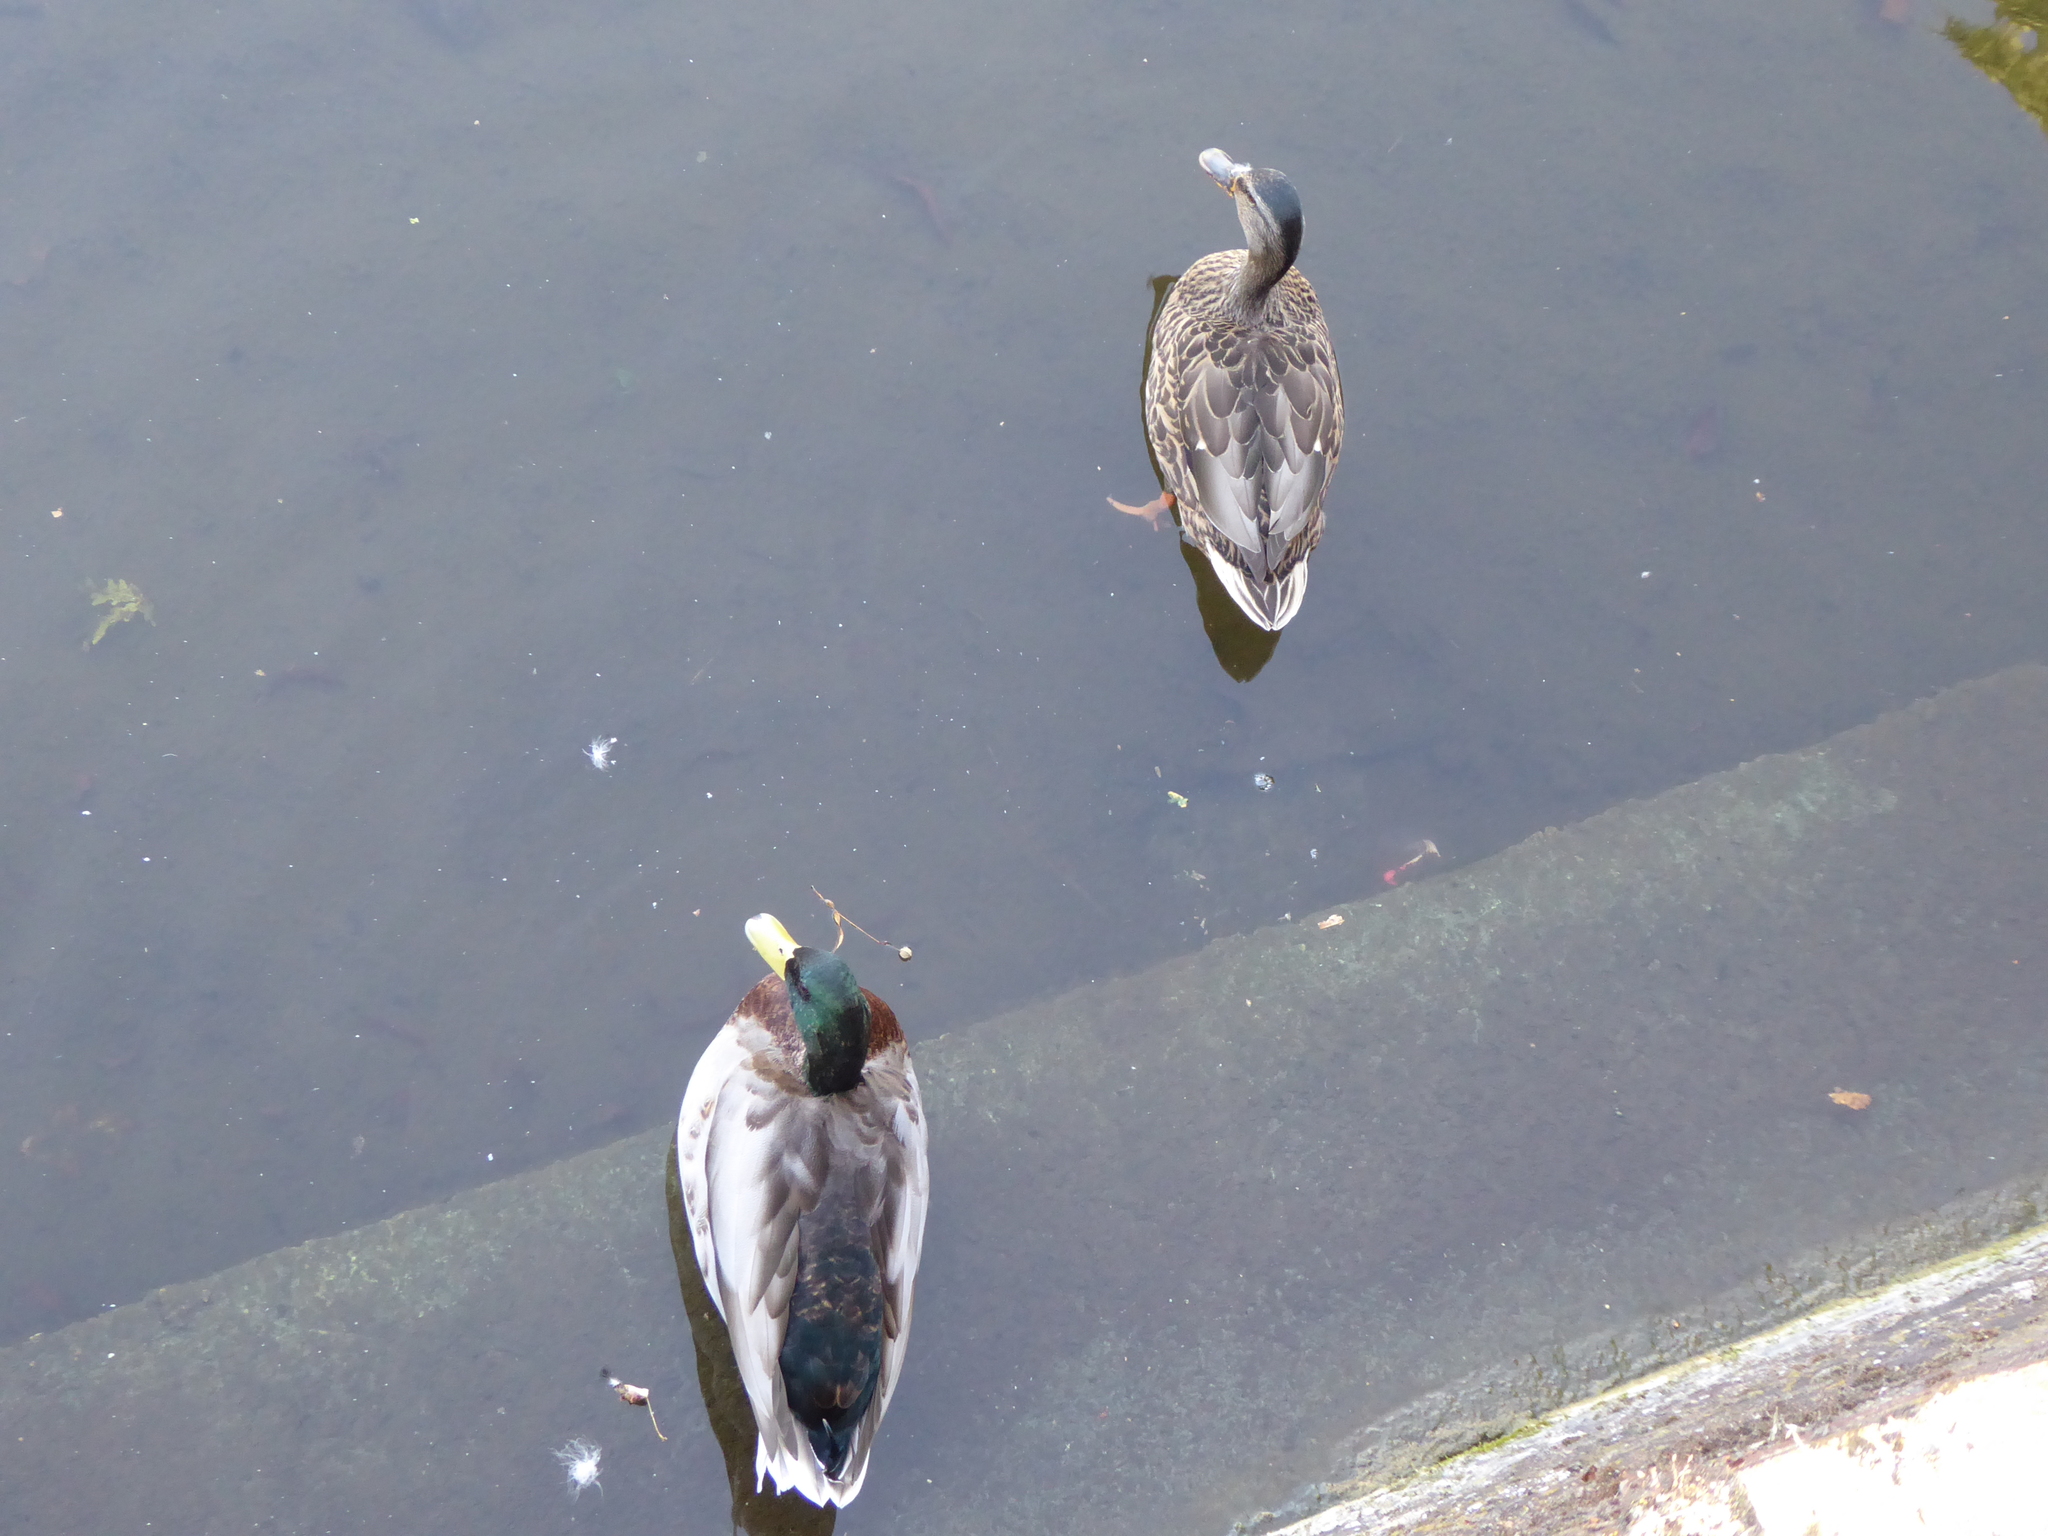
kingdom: Animalia
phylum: Chordata
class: Aves
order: Anseriformes
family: Anatidae
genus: Anas
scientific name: Anas platyrhynchos
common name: Mallard
